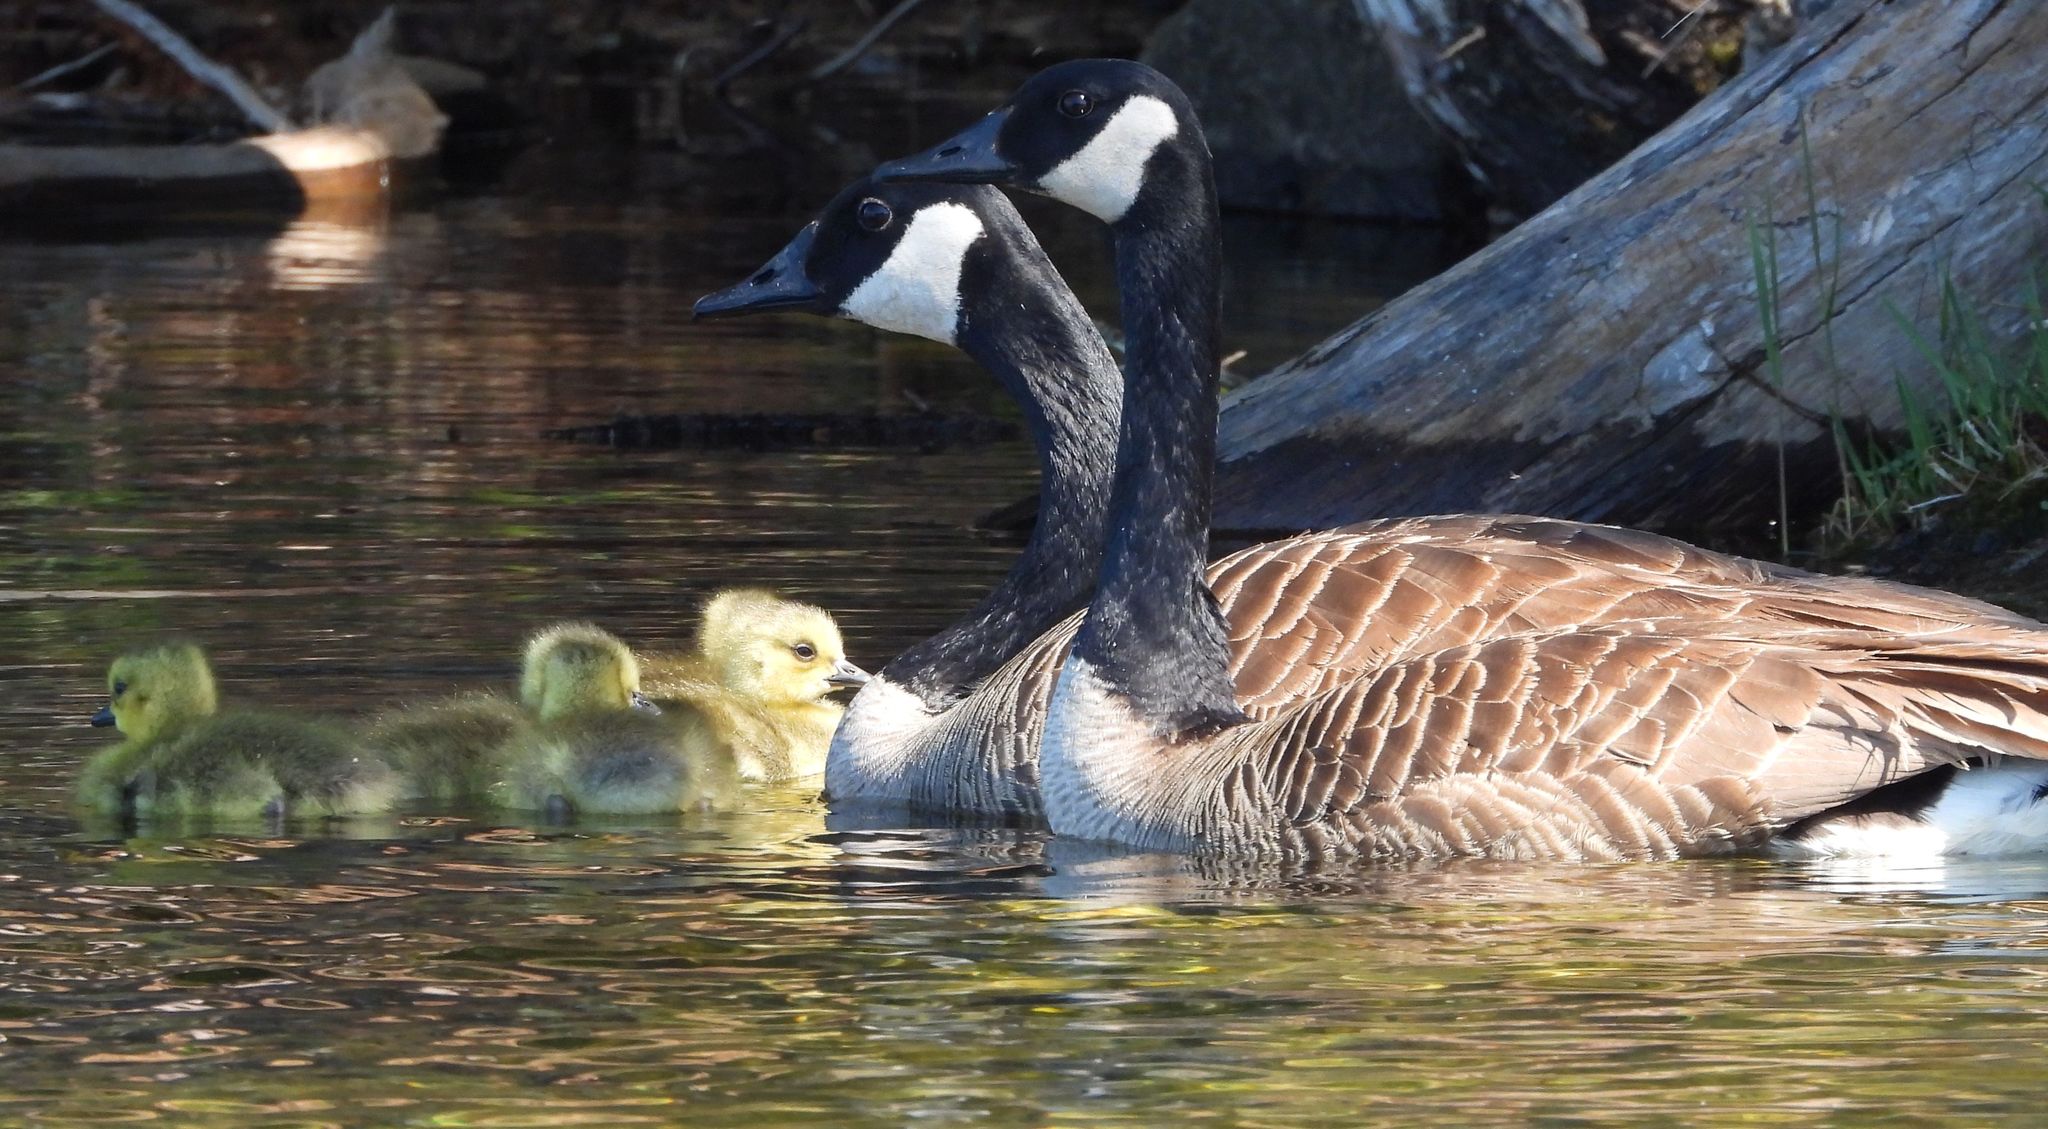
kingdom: Animalia
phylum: Chordata
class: Aves
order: Anseriformes
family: Anatidae
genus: Branta
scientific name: Branta canadensis
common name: Canada goose
